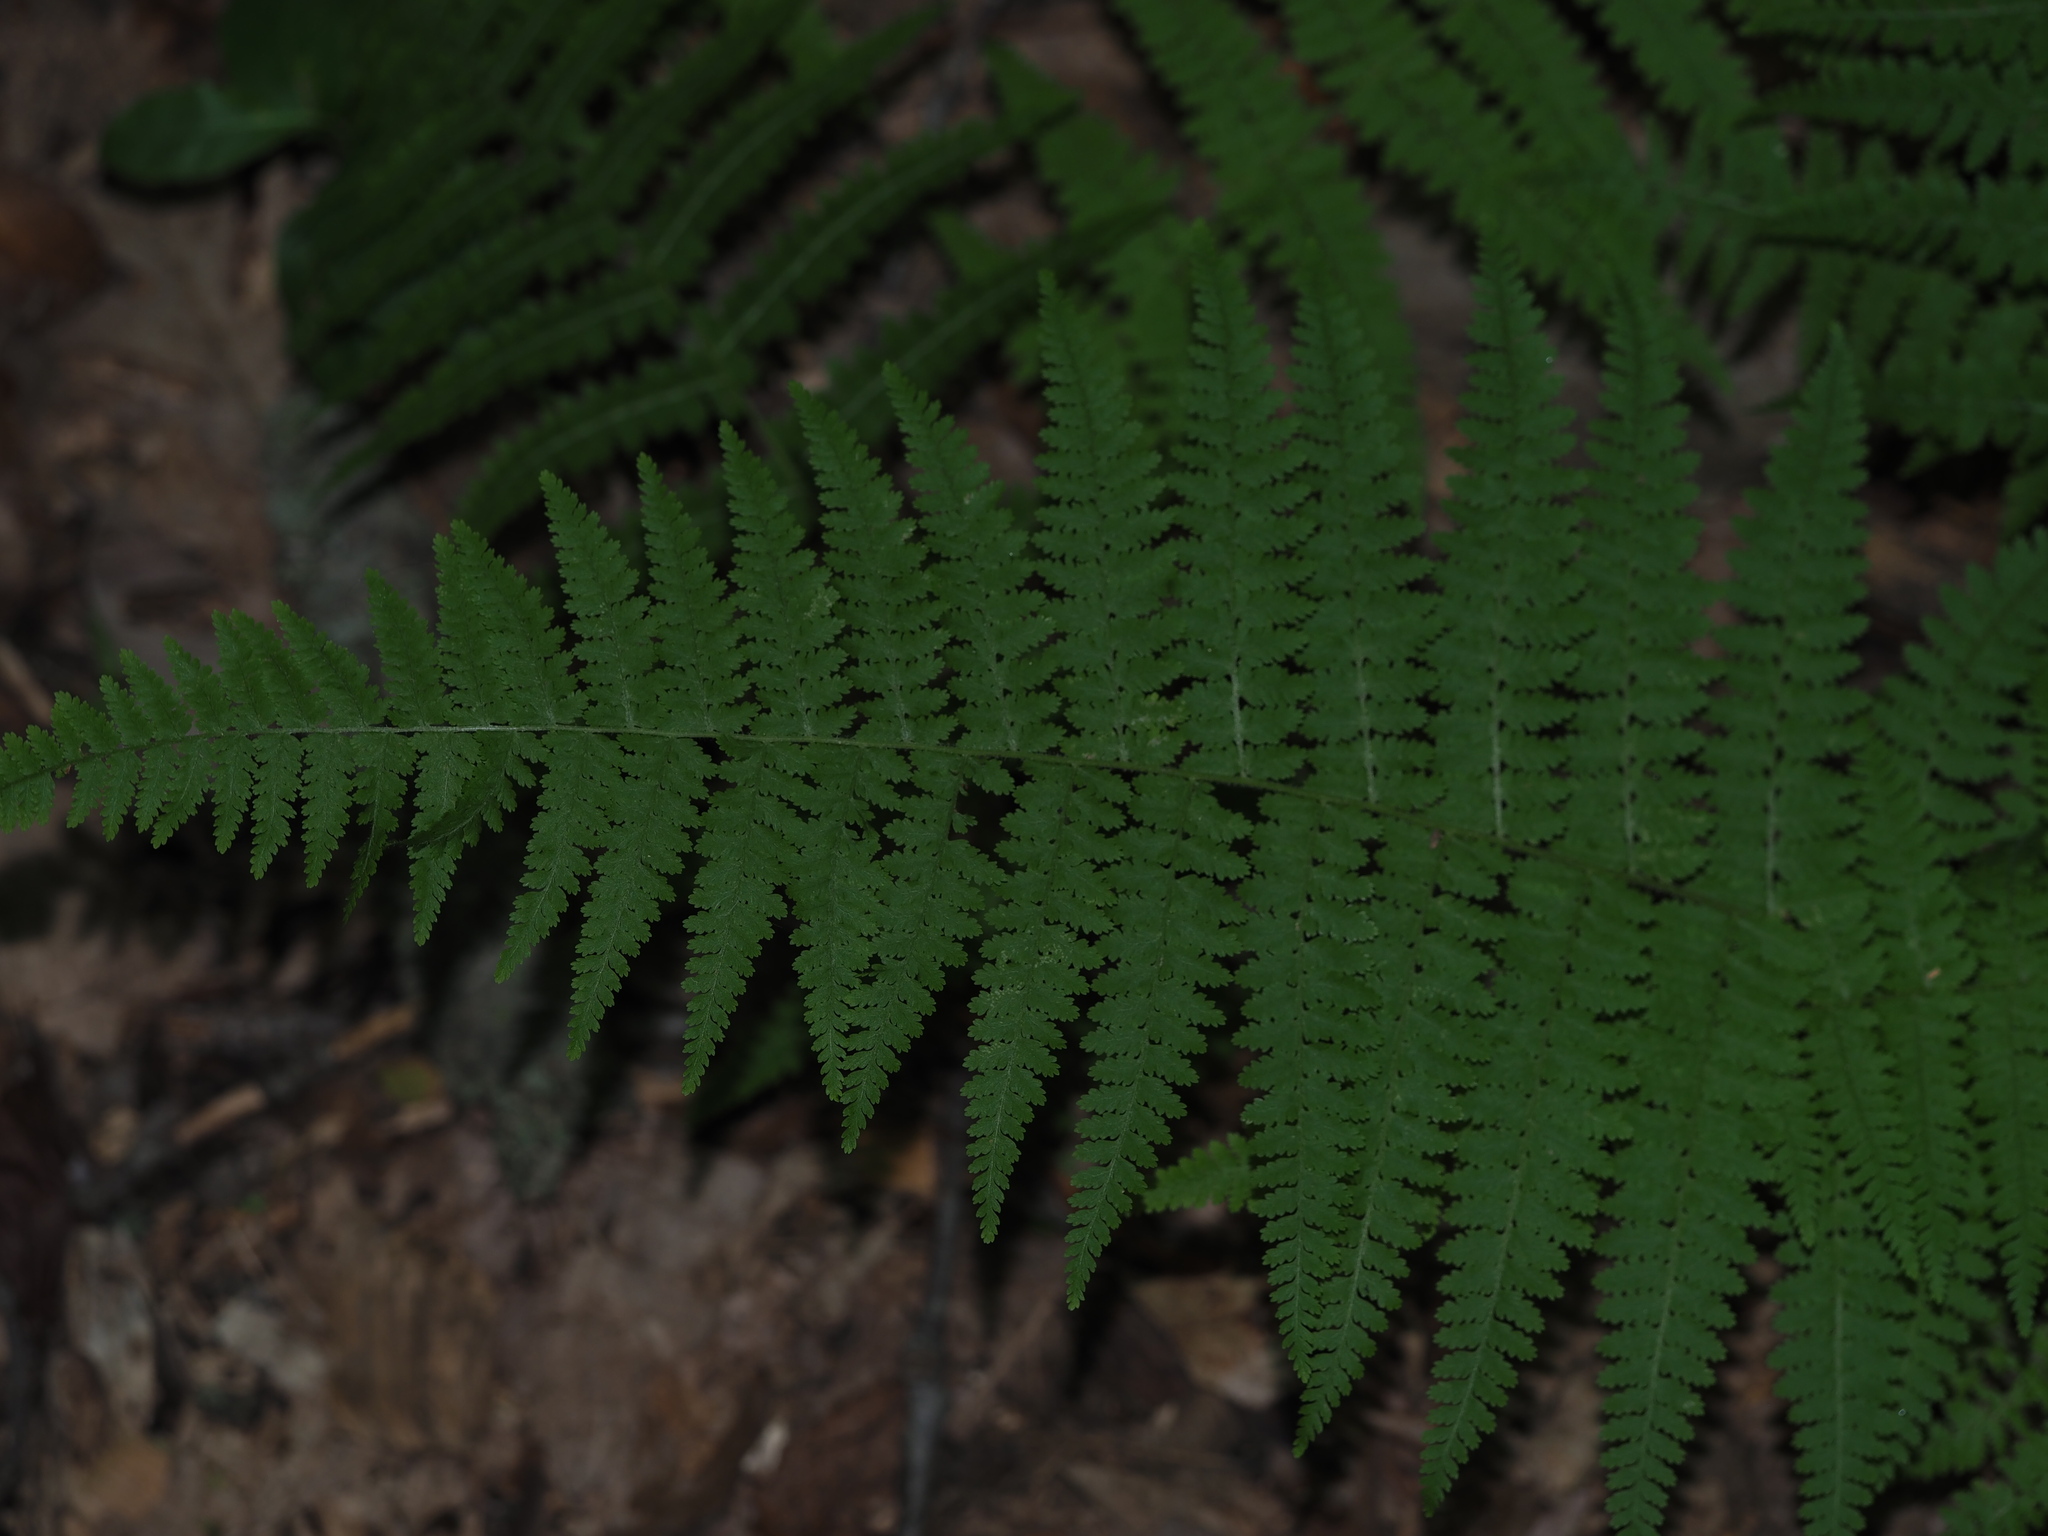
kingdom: Plantae
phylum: Tracheophyta
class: Polypodiopsida
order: Polypodiales
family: Dennstaedtiaceae
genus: Sitobolium
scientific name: Sitobolium punctilobum
